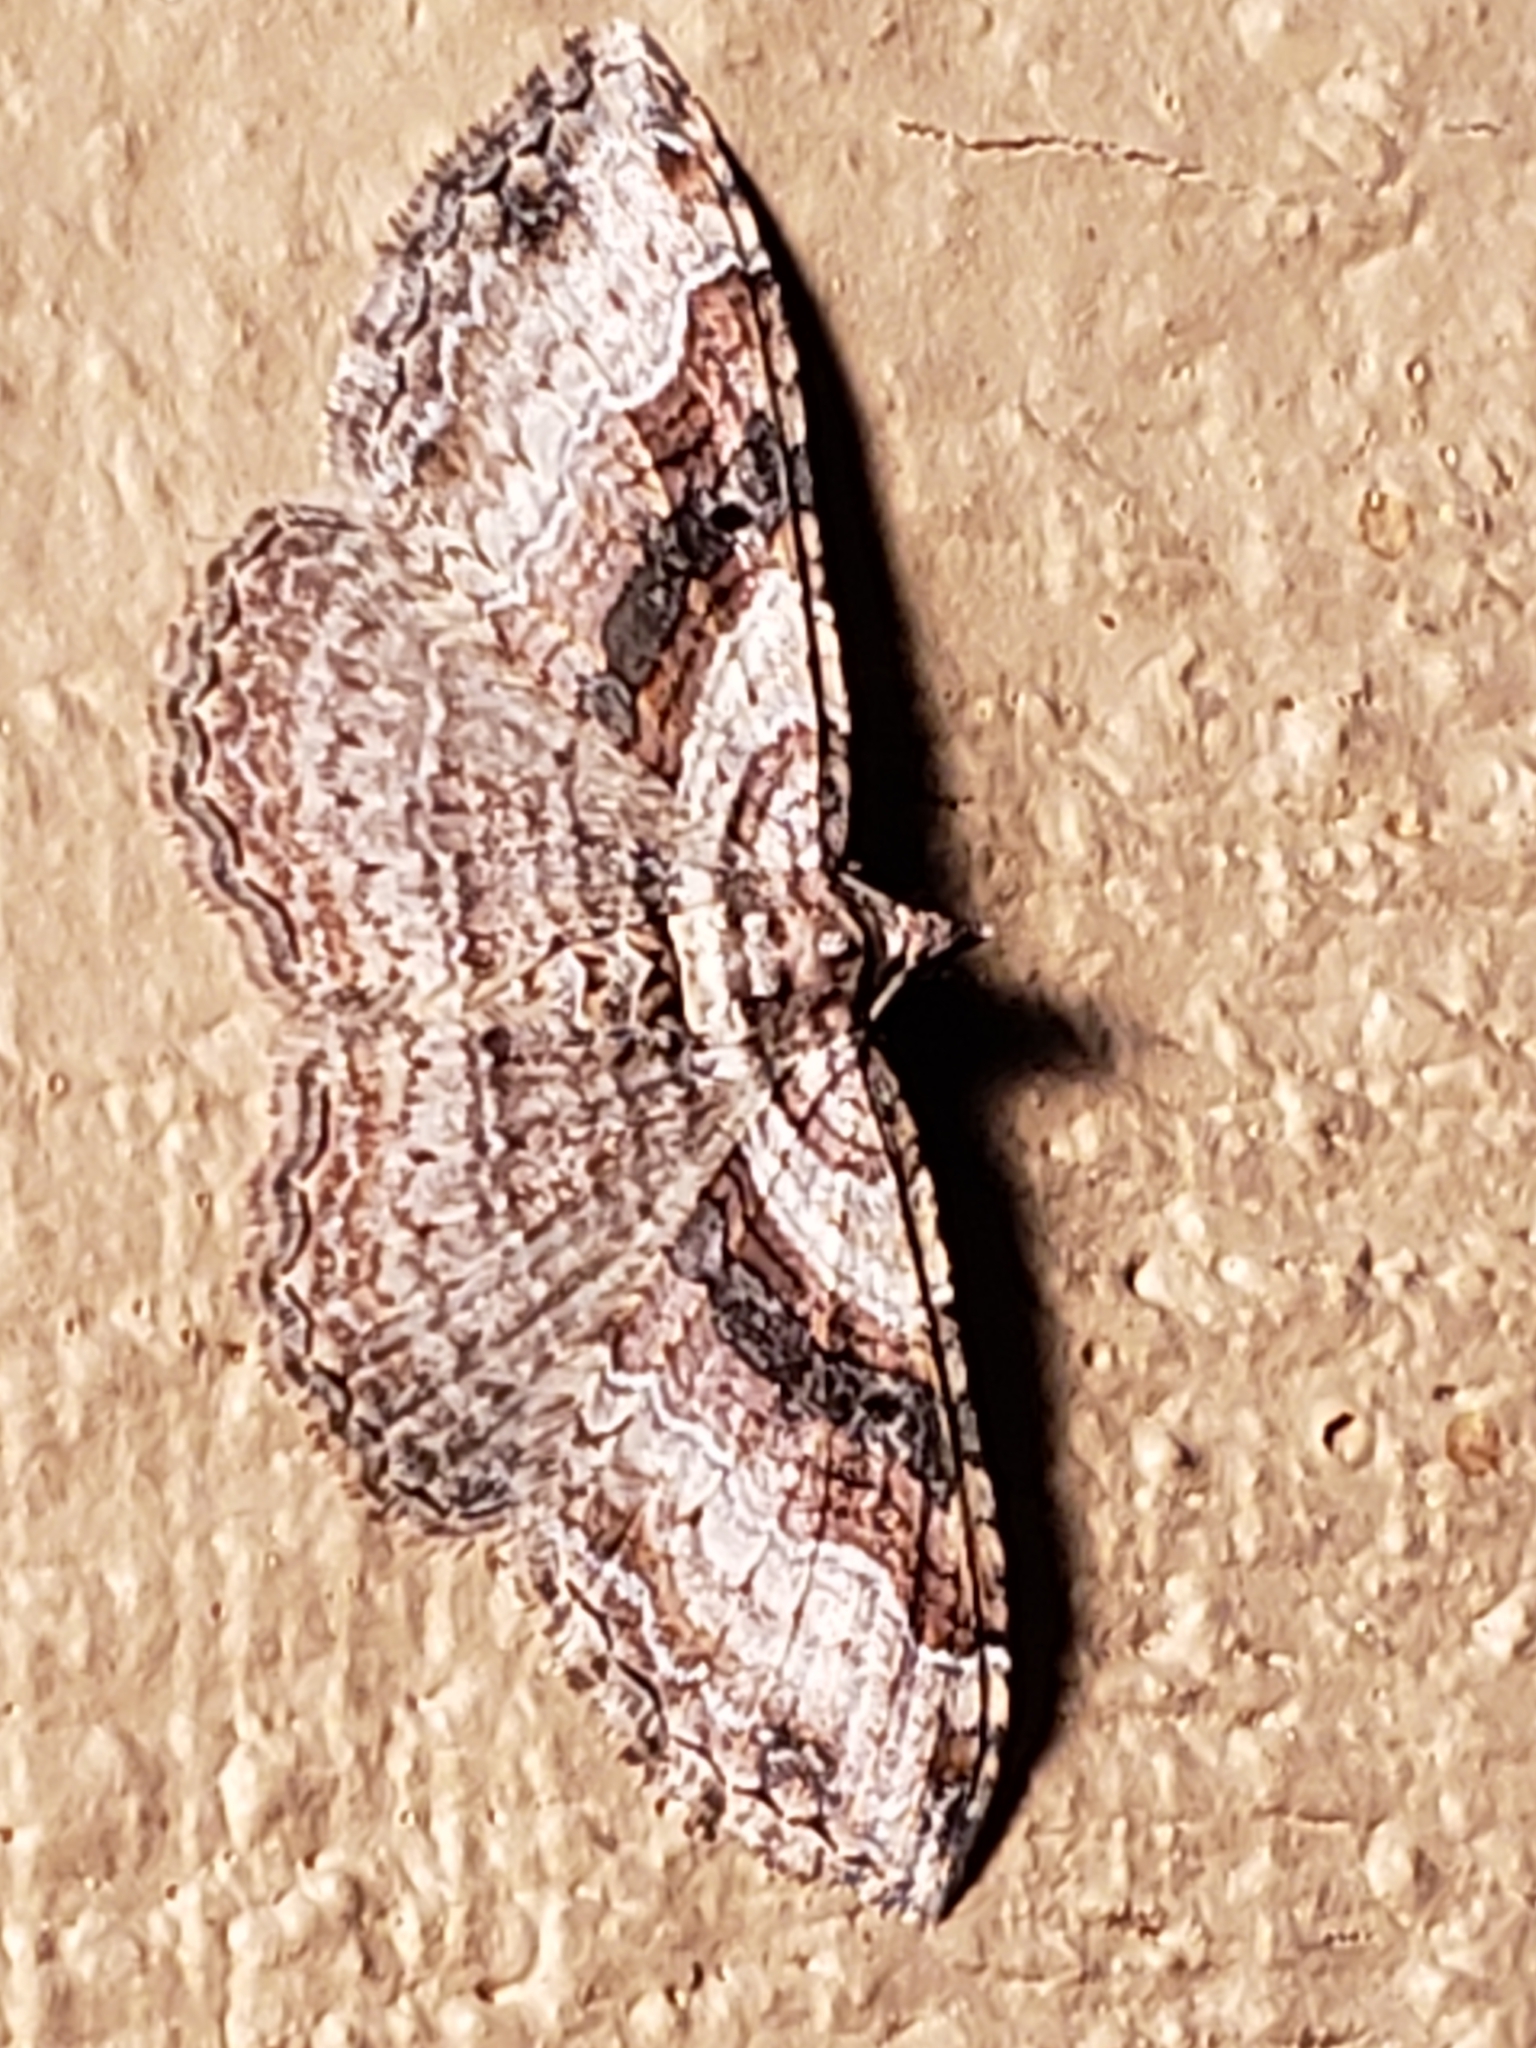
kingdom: Animalia
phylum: Arthropoda
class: Insecta
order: Lepidoptera
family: Geometridae
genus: Costaconvexa
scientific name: Costaconvexa centrostrigaria
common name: Bent-line carpet
